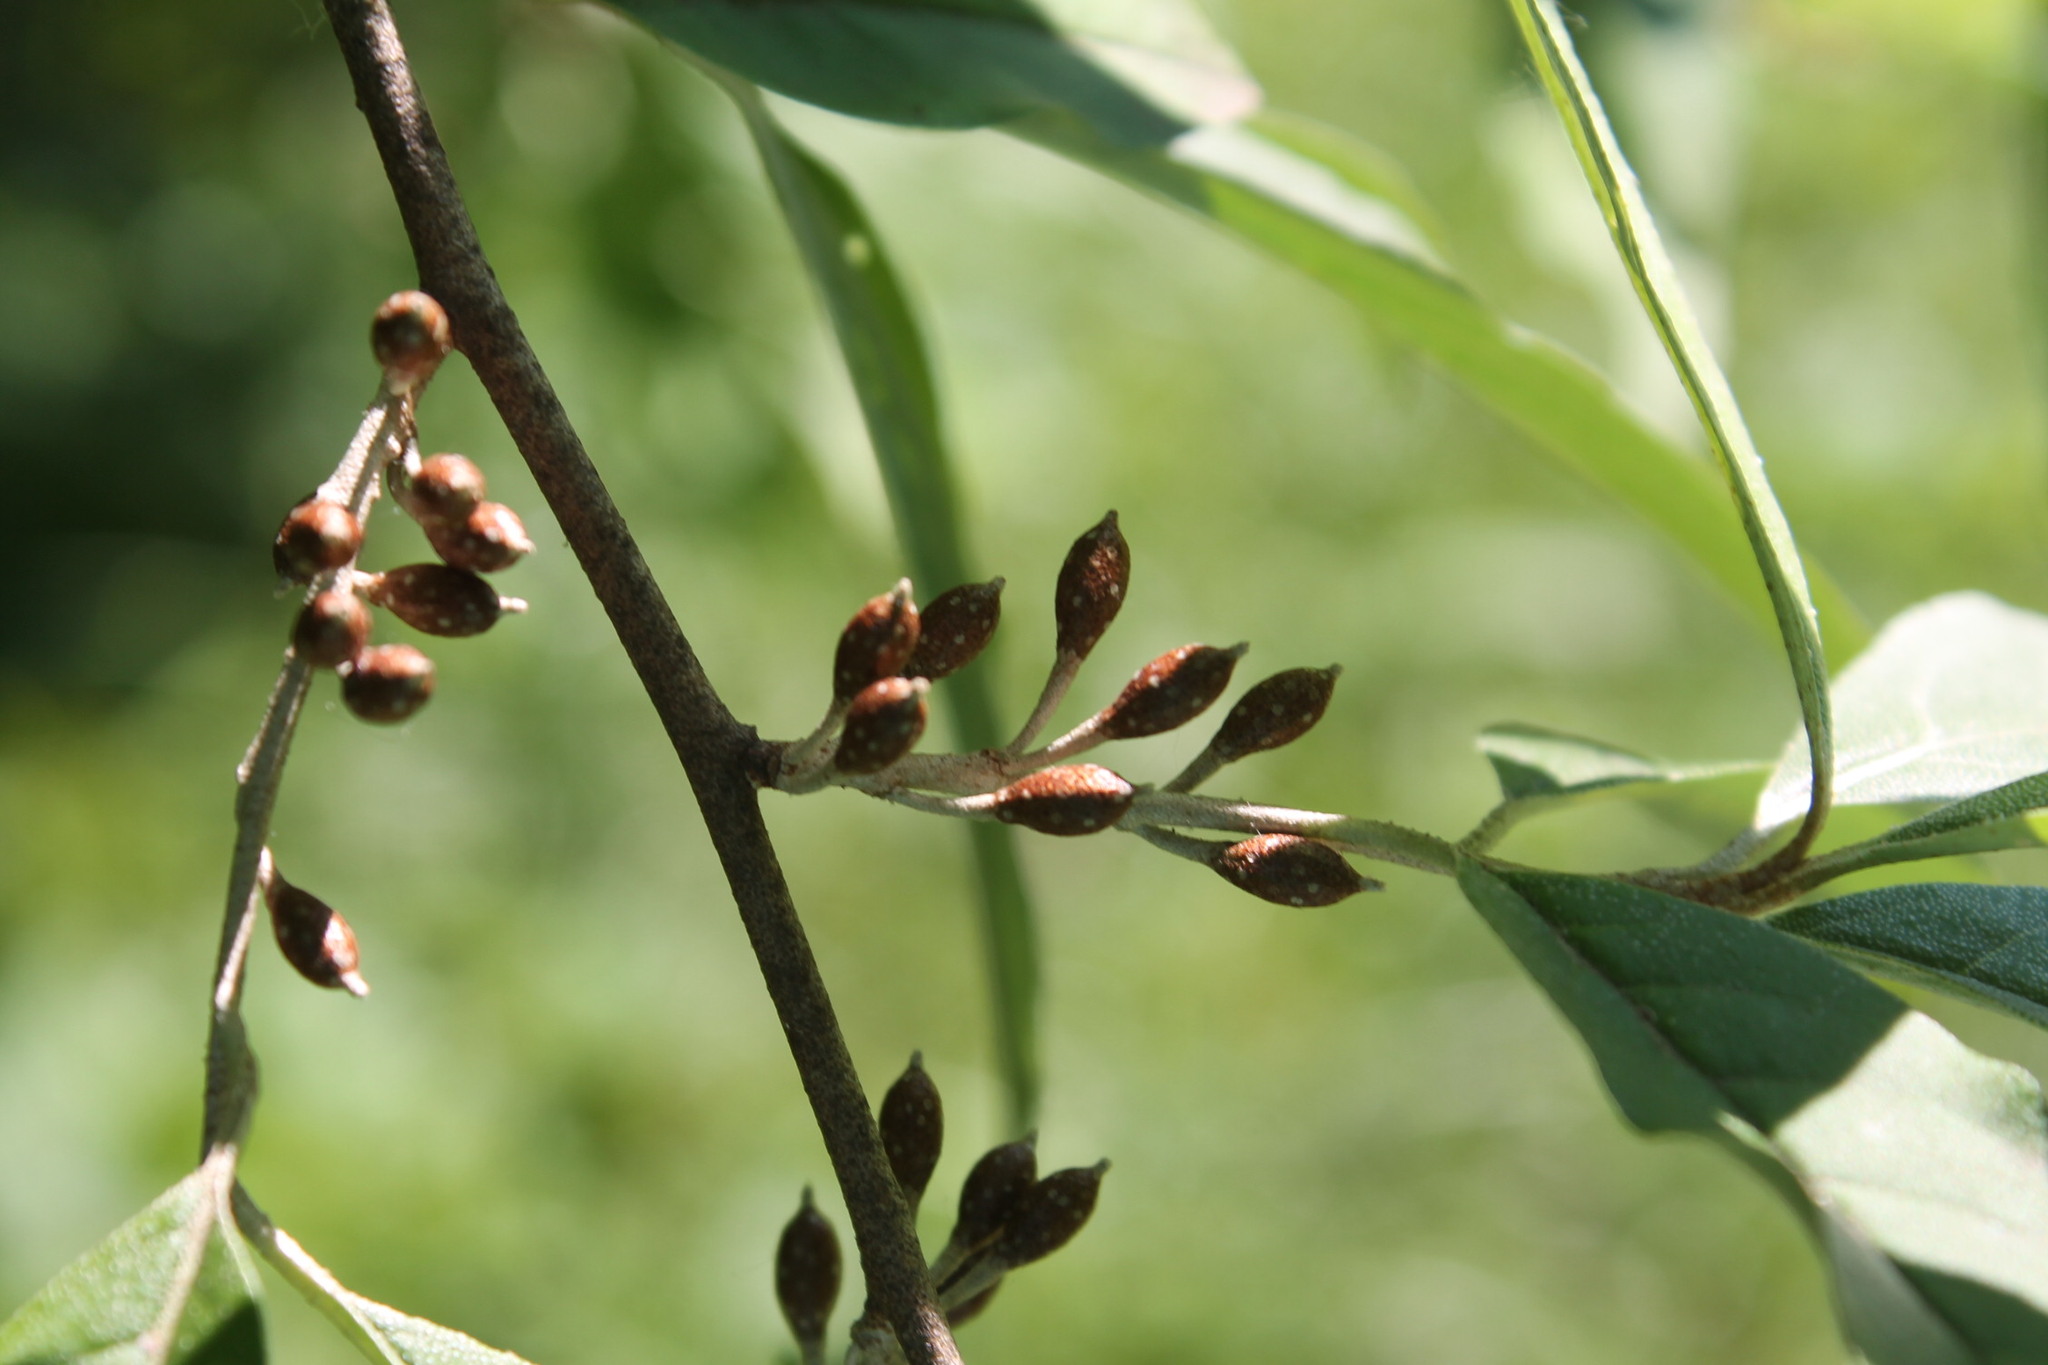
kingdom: Plantae
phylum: Tracheophyta
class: Magnoliopsida
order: Rosales
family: Elaeagnaceae
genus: Elaeagnus
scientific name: Elaeagnus umbellata
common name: Autumn olive
